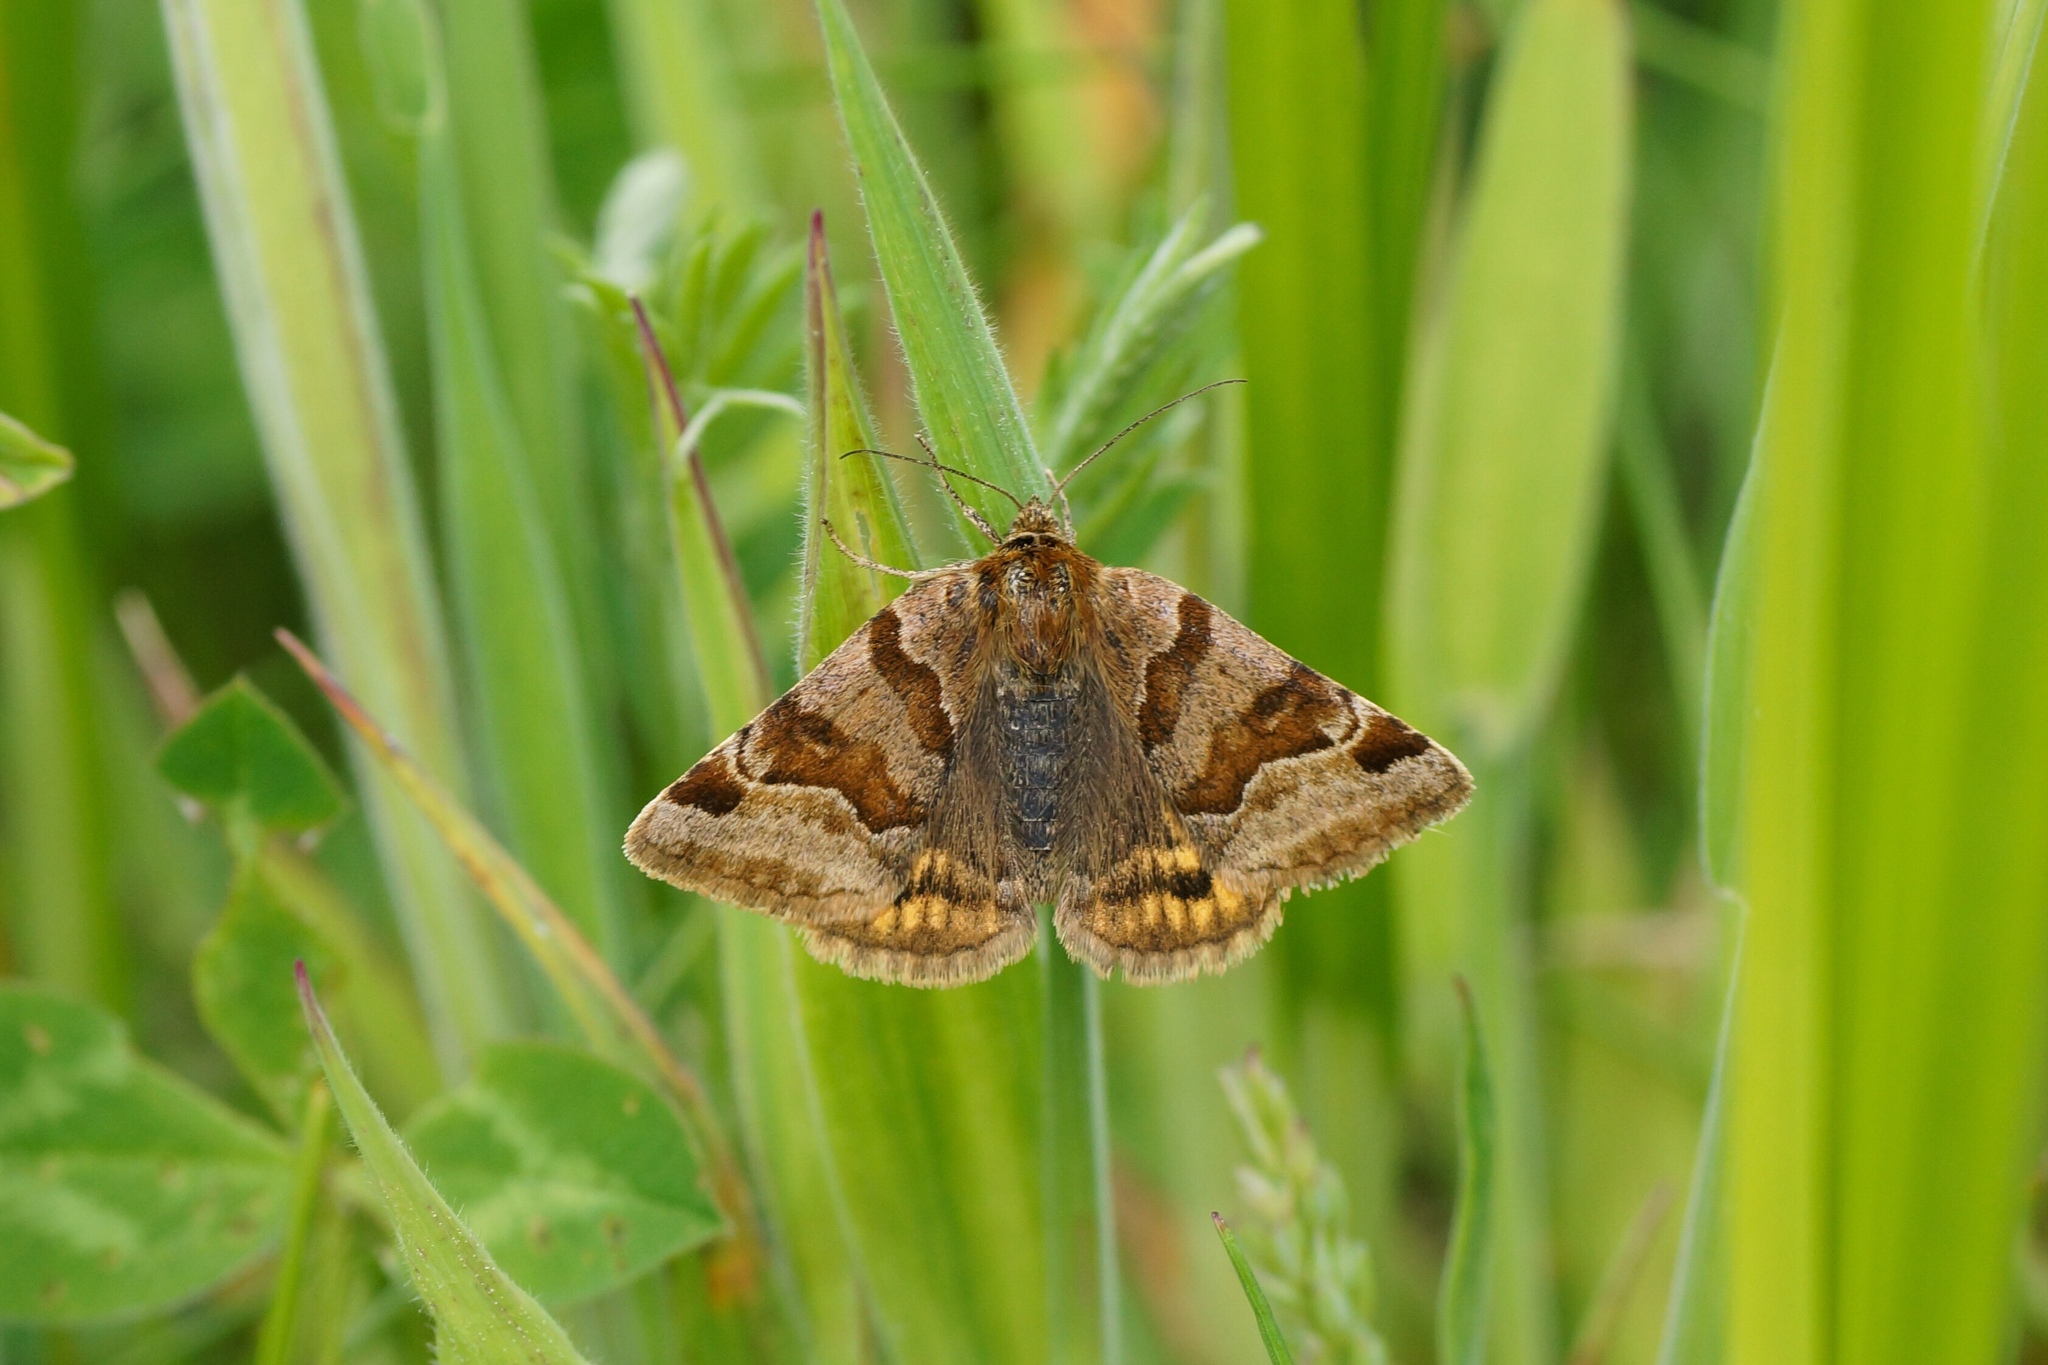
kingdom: Animalia
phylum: Arthropoda
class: Insecta
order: Lepidoptera
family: Erebidae
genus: Euclidia
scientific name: Euclidia glyphica
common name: Burnet companion
